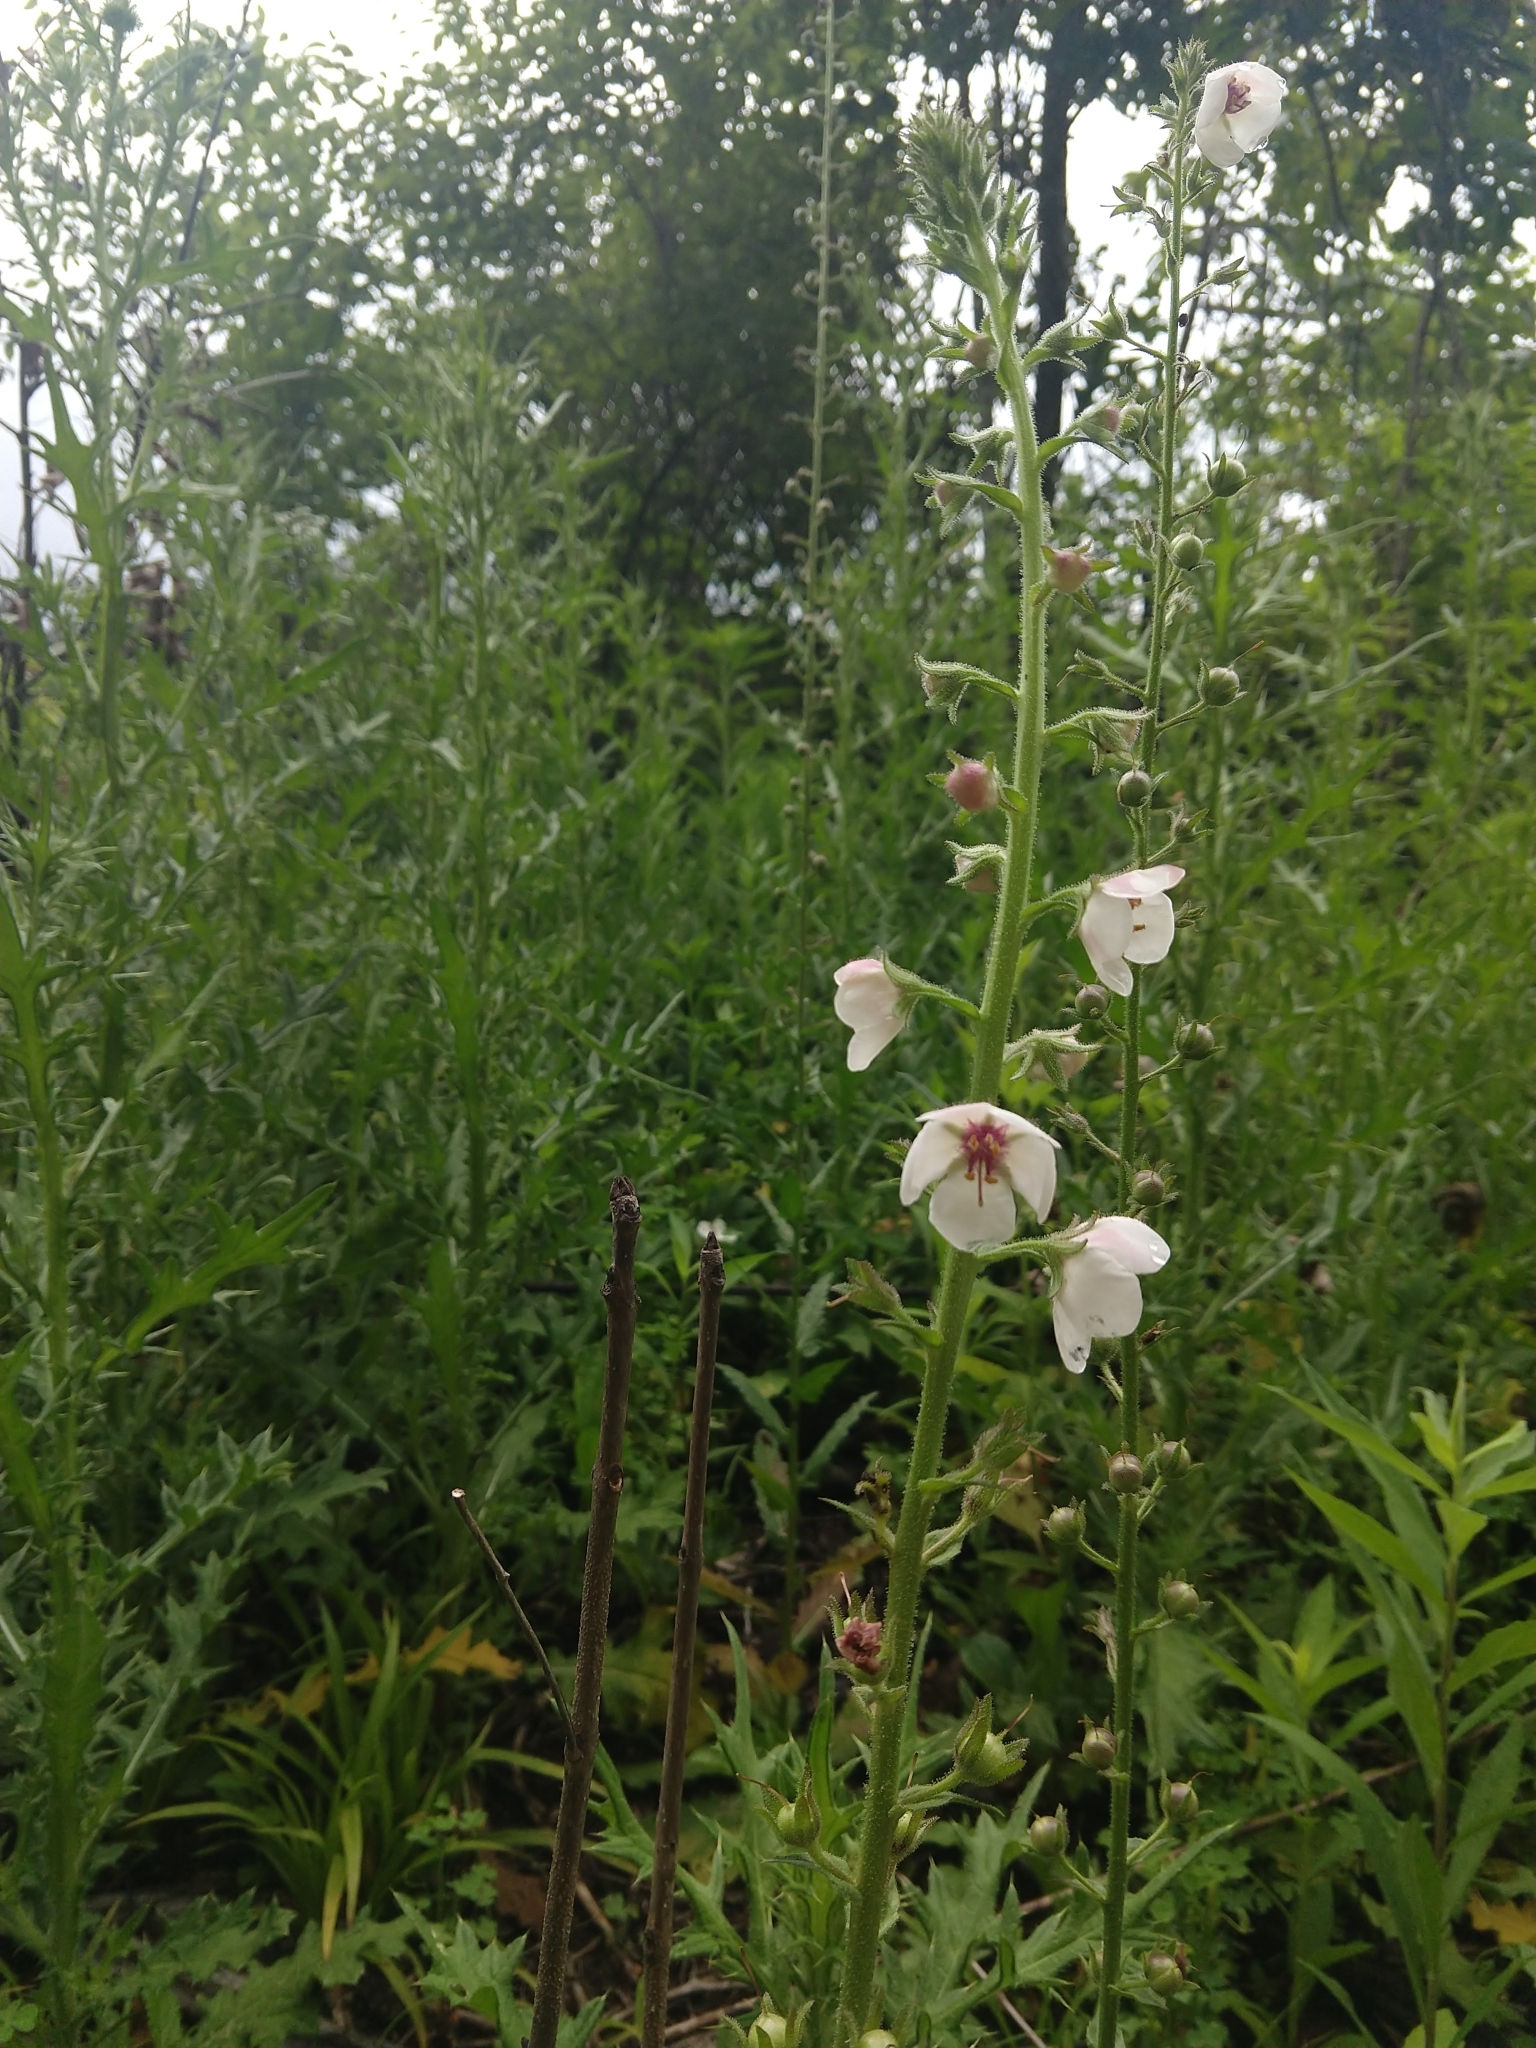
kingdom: Plantae
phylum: Tracheophyta
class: Magnoliopsida
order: Lamiales
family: Scrophulariaceae
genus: Verbascum
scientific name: Verbascum blattaria
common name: Moth mullein
